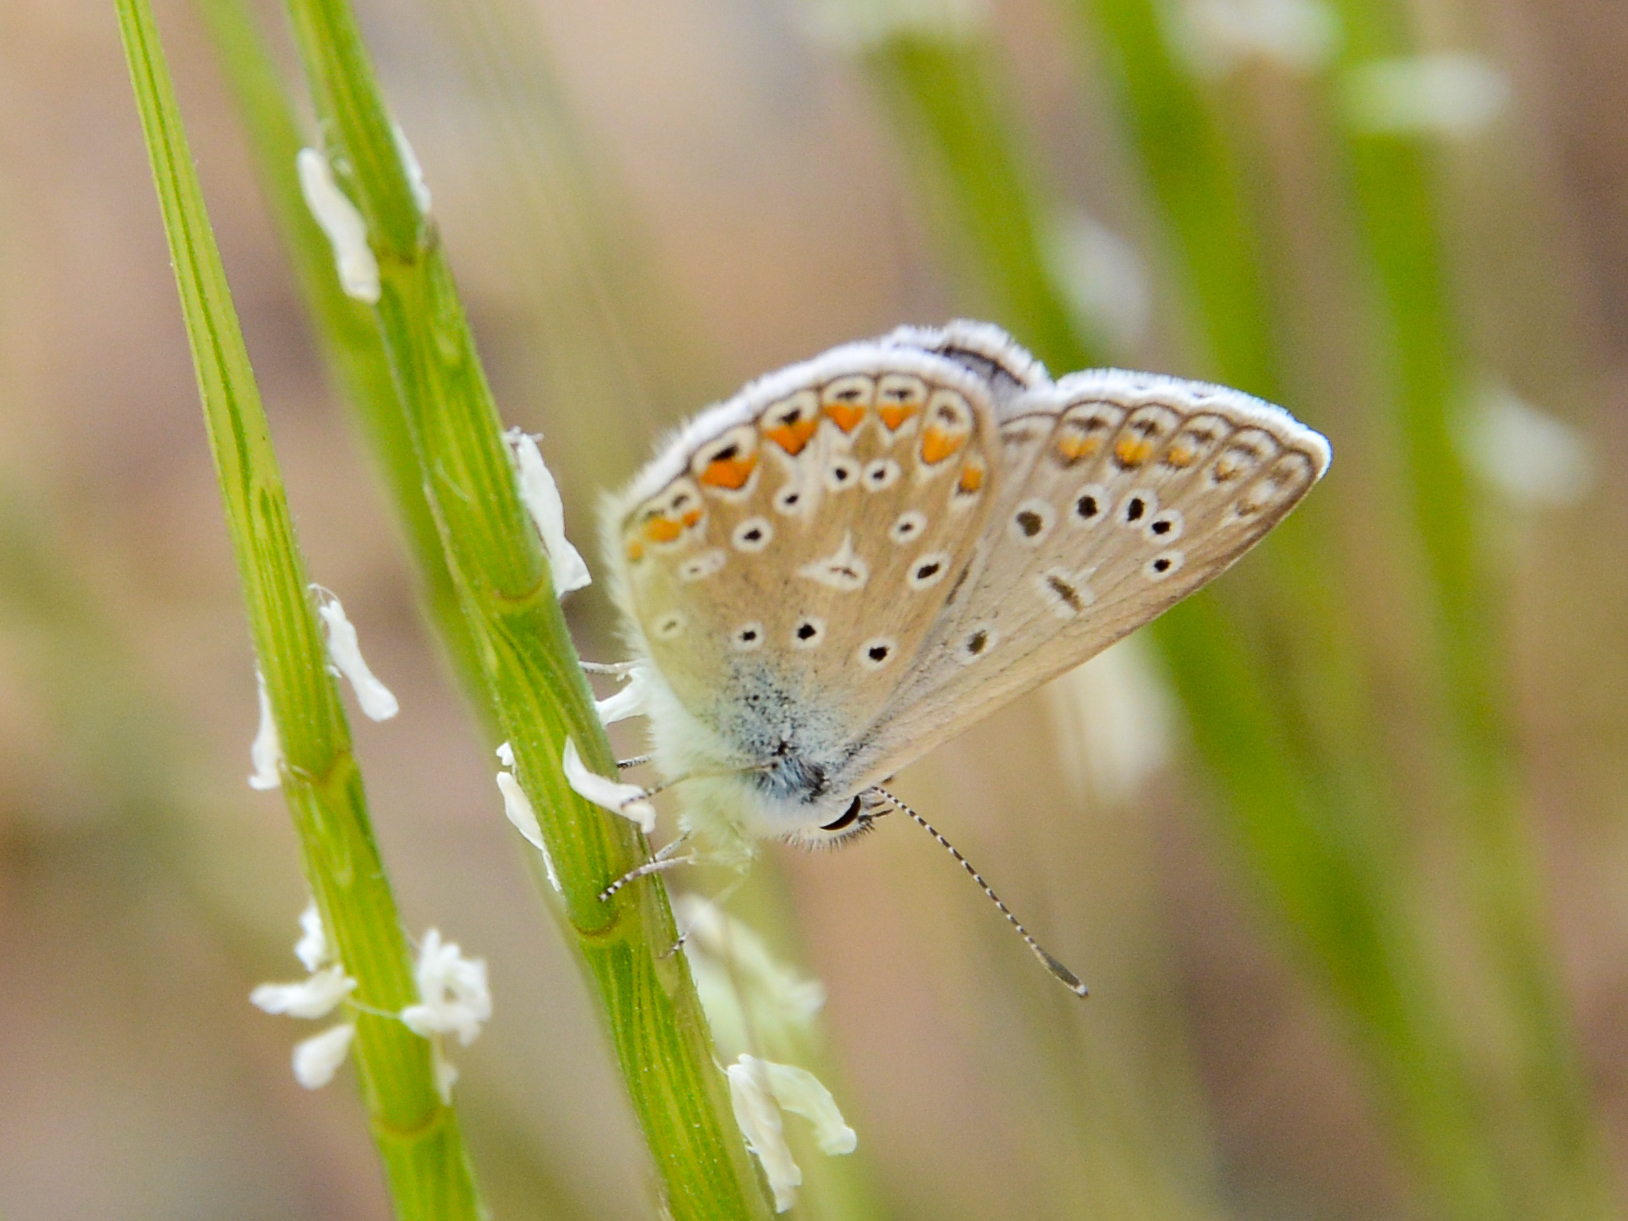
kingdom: Animalia
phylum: Arthropoda
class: Insecta
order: Lepidoptera
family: Lycaenidae
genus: Polyommatus
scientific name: Polyommatus icarus
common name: Common blue
